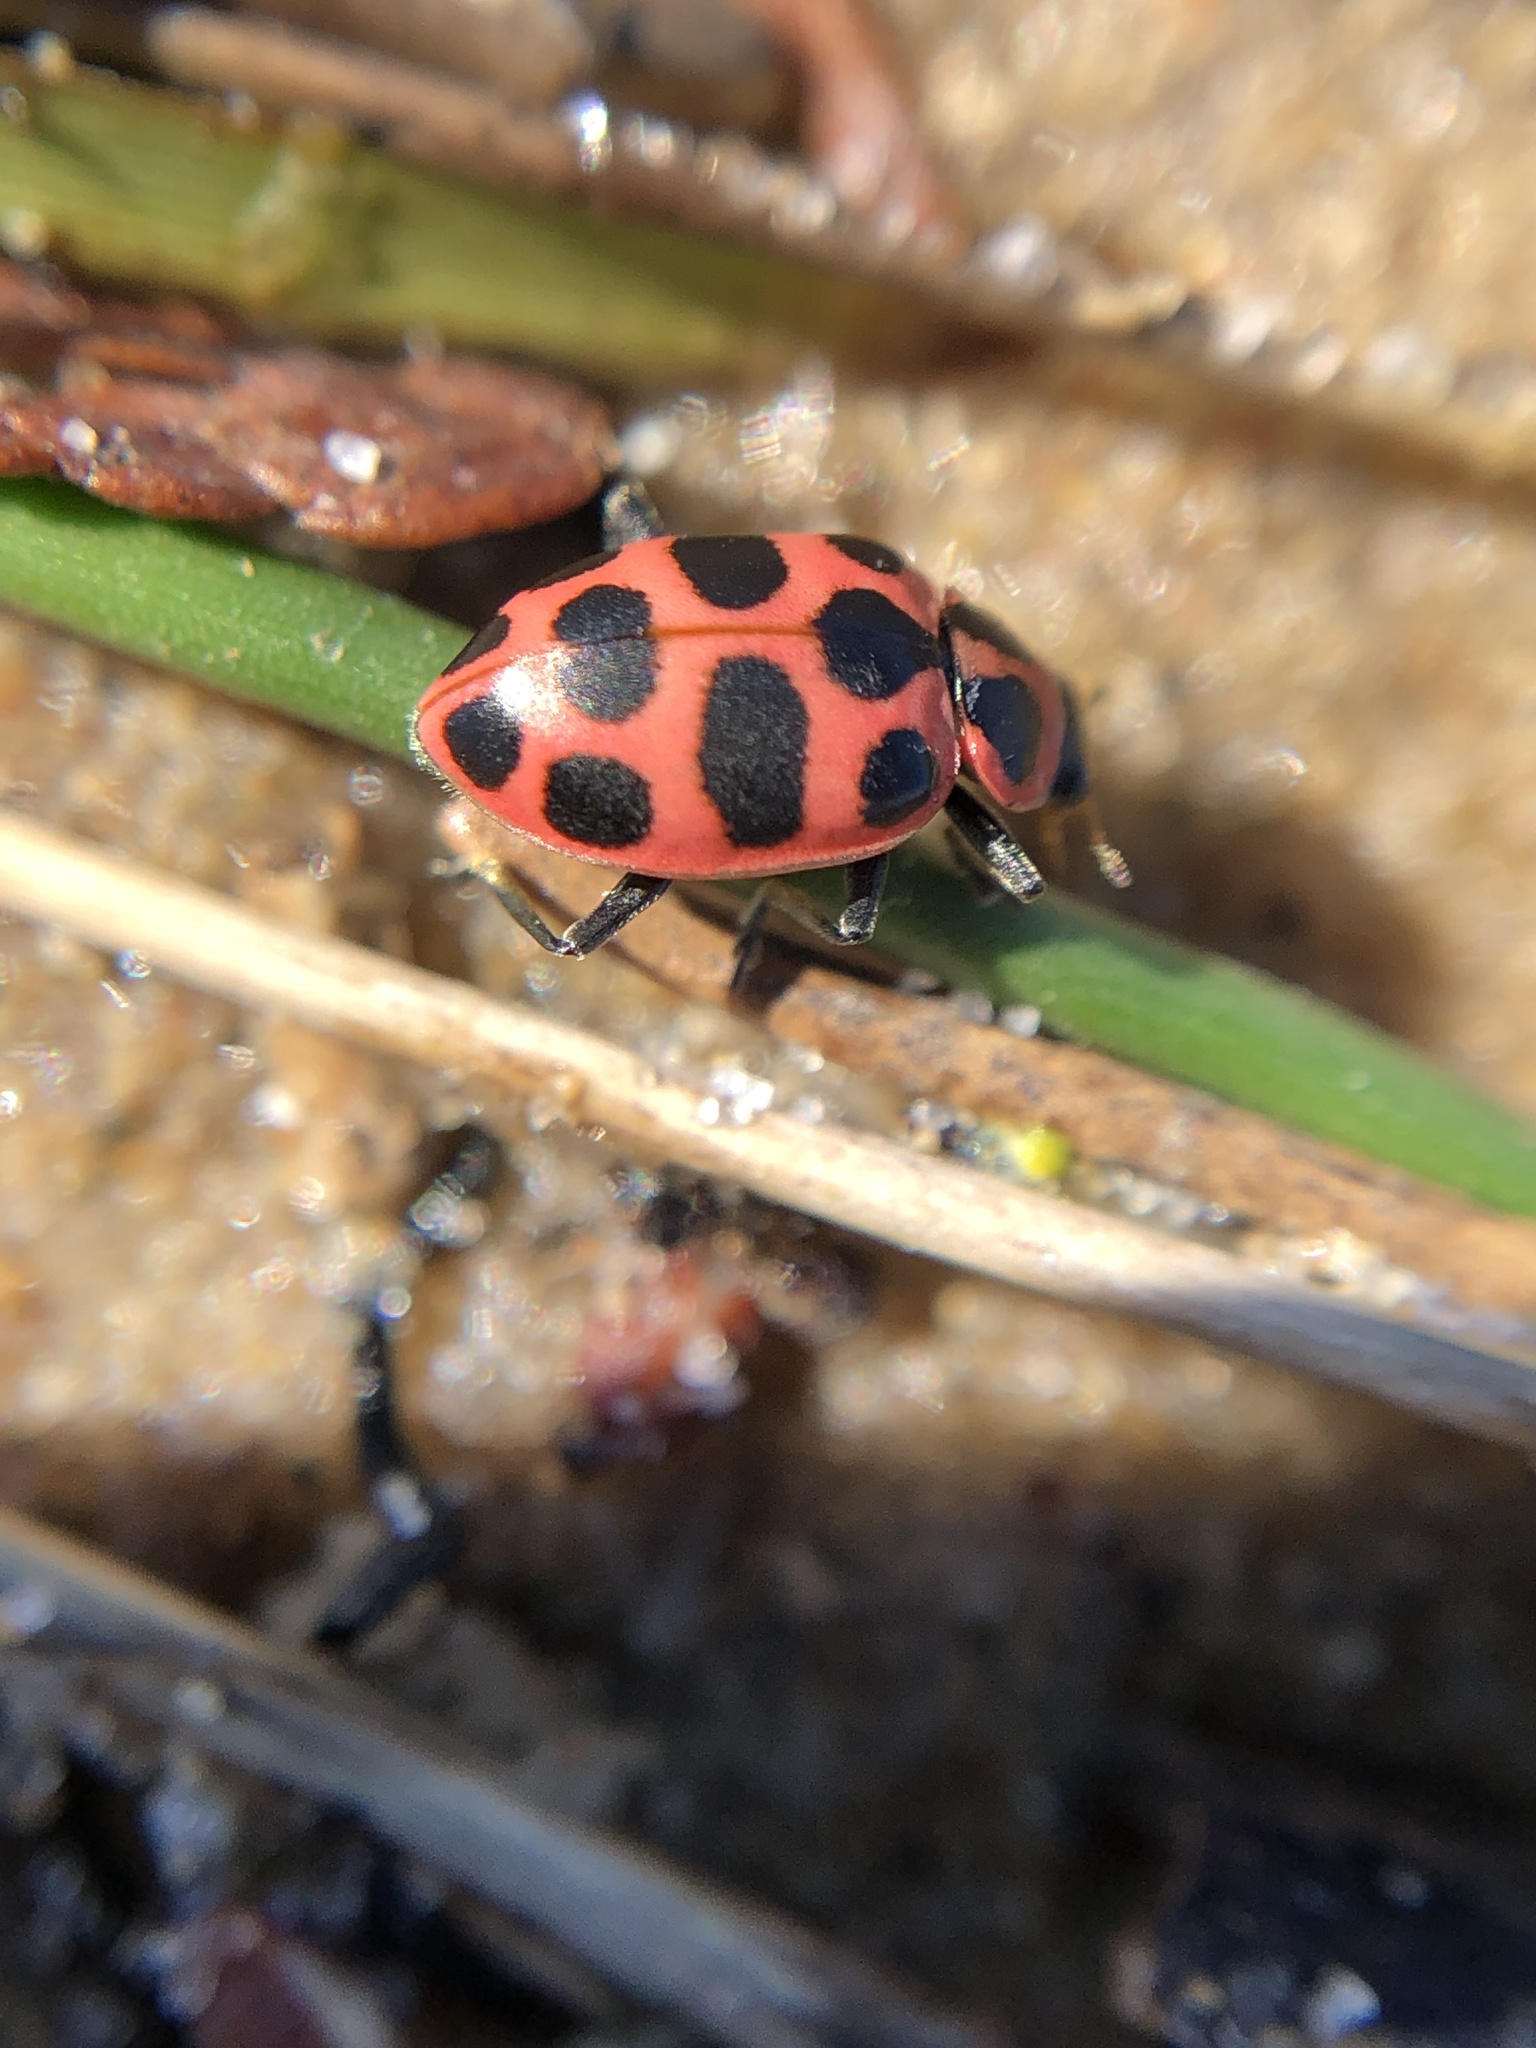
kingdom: Animalia
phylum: Arthropoda
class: Insecta
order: Coleoptera
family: Coccinellidae
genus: Coleomegilla
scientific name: Coleomegilla maculata
